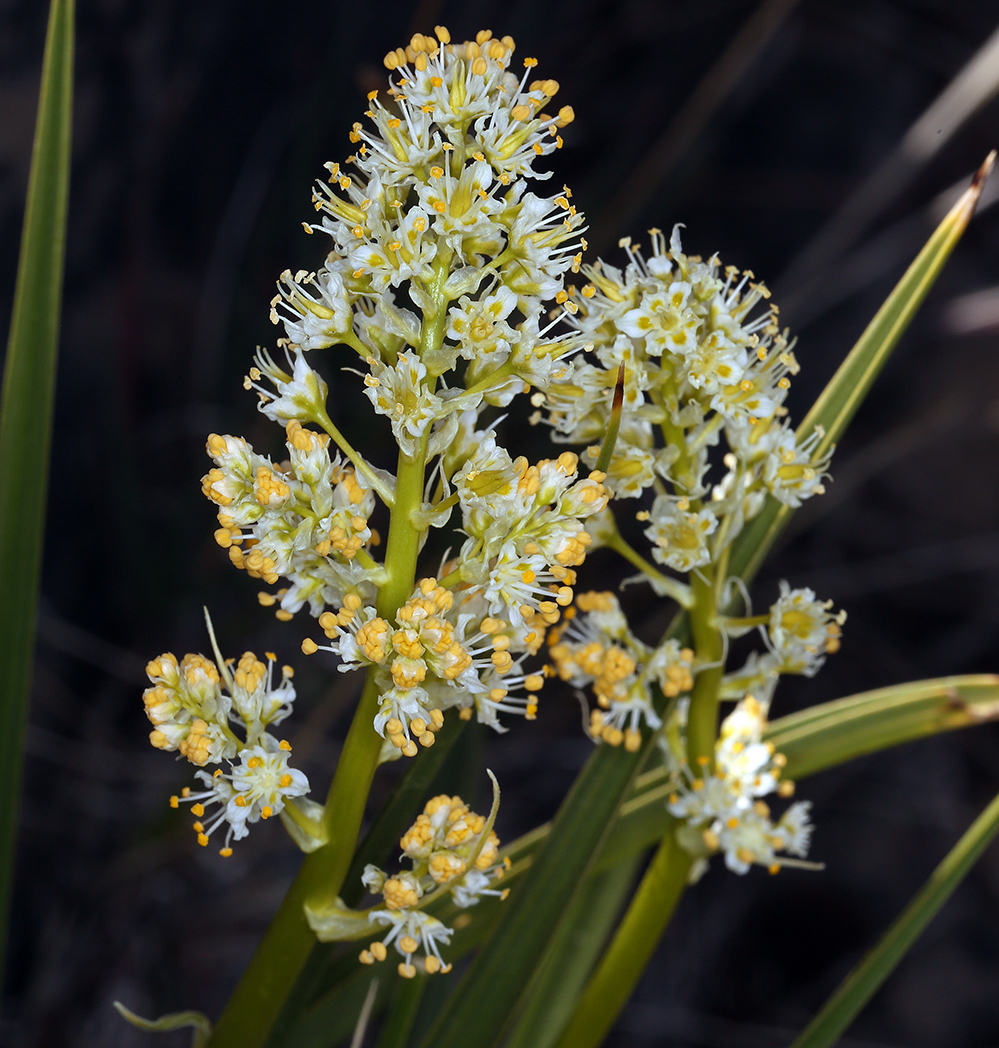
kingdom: Plantae
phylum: Tracheophyta
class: Liliopsida
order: Liliales
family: Melanthiaceae
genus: Toxicoscordion
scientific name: Toxicoscordion paniculatum
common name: Foothill death camas
